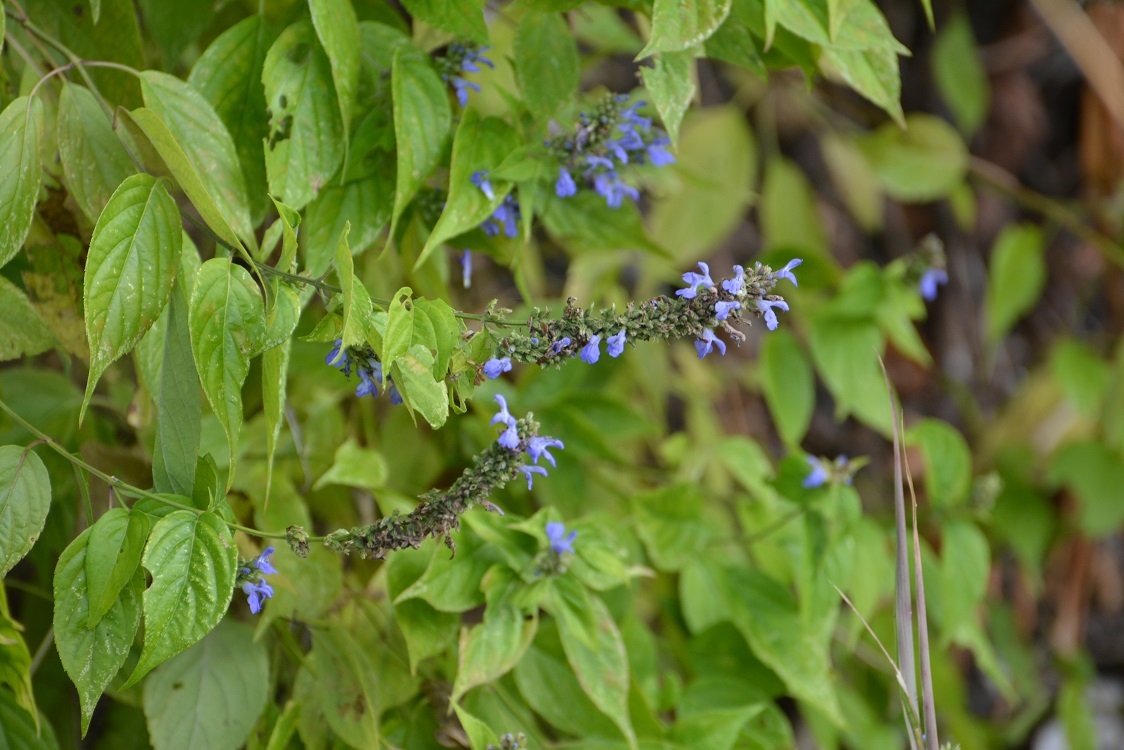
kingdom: Plantae
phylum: Tracheophyta
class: Magnoliopsida
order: Lamiales
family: Lamiaceae
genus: Salvia
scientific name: Salvia connivens
